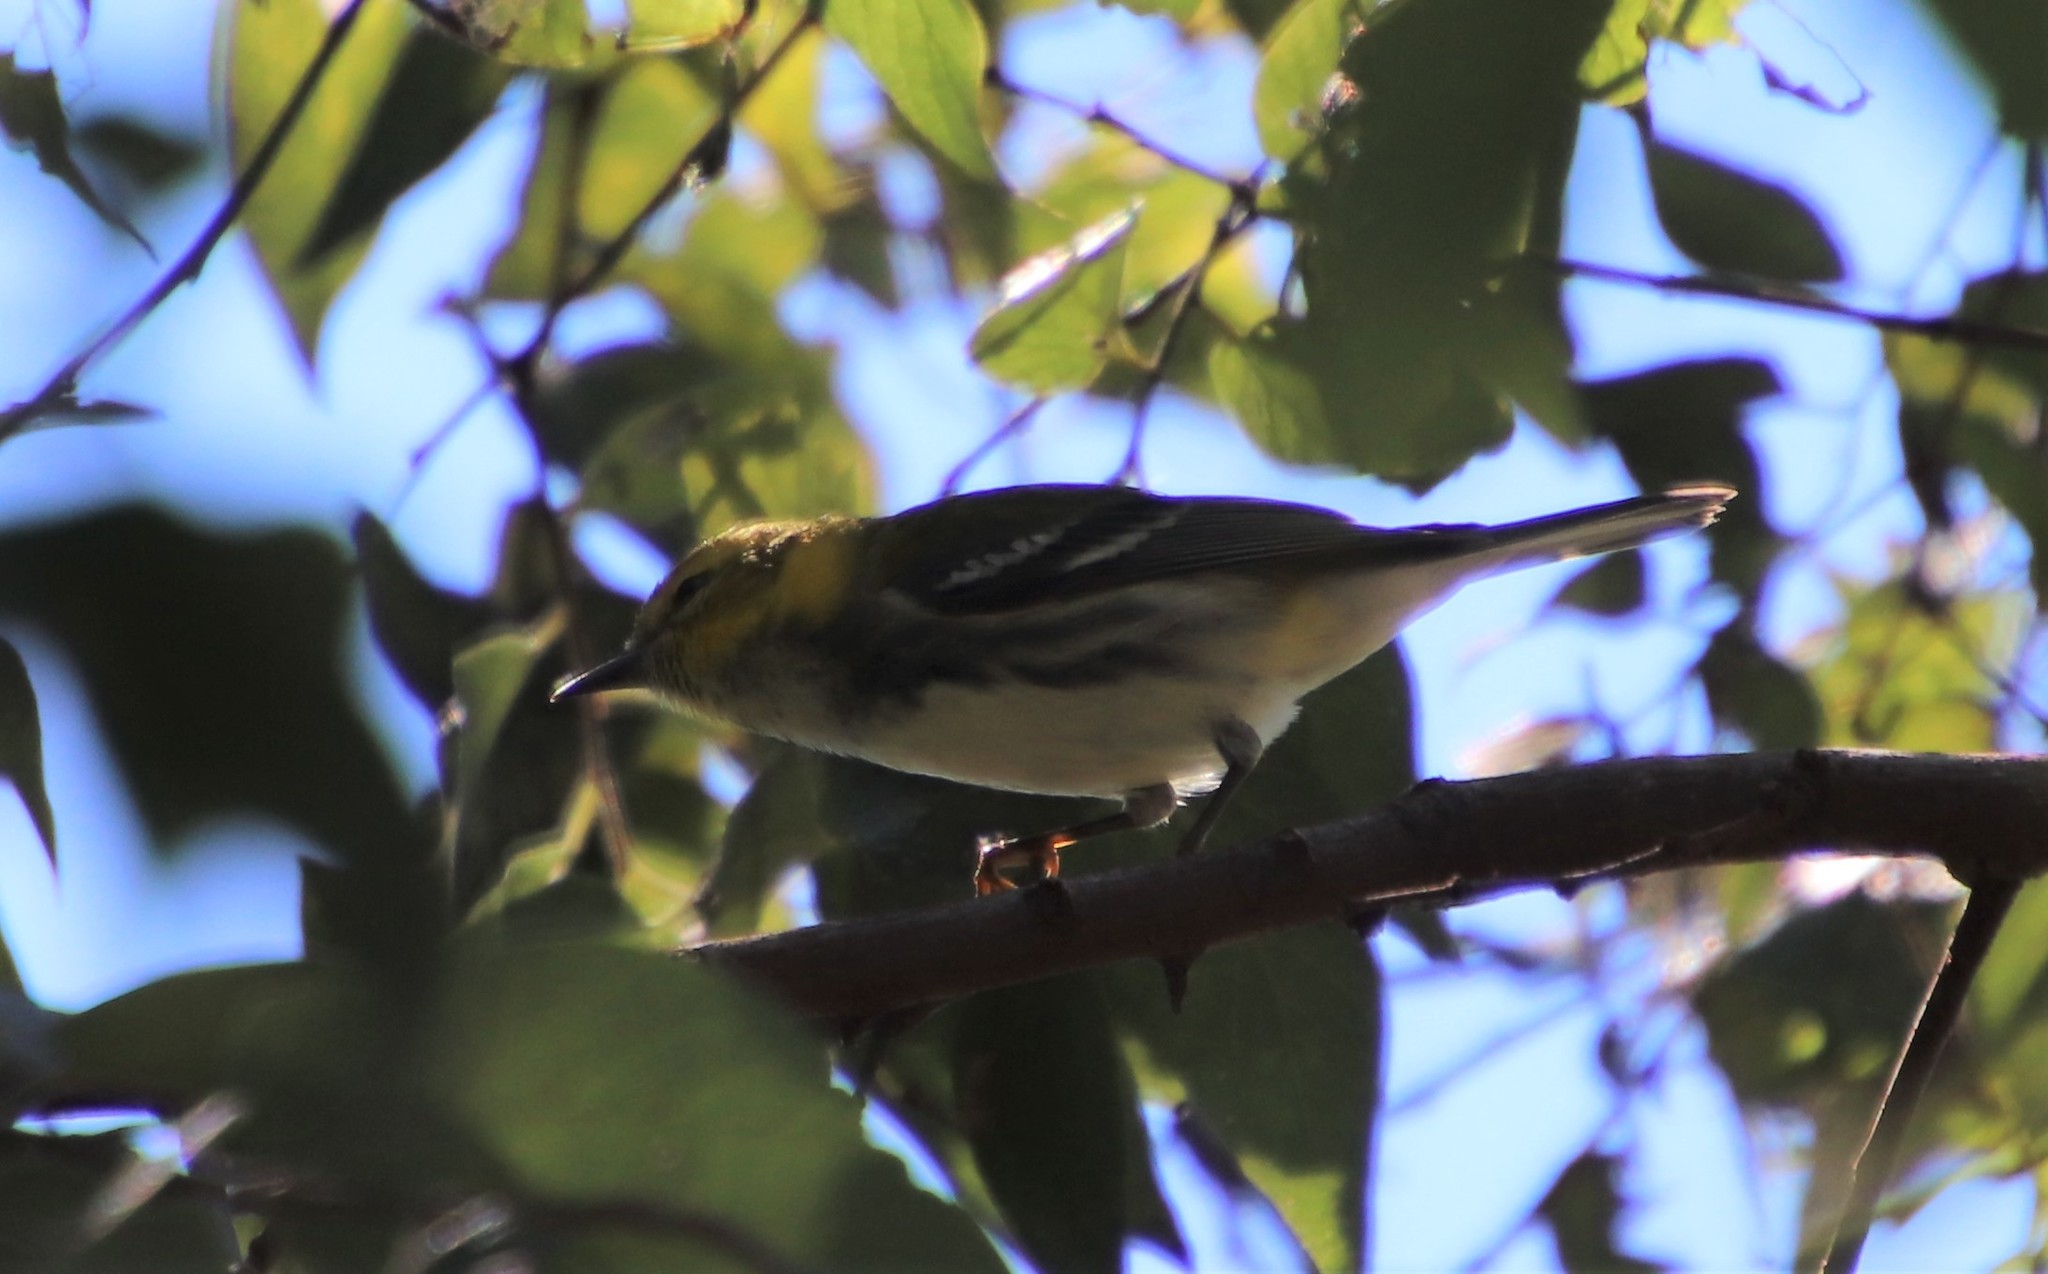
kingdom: Animalia
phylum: Chordata
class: Aves
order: Passeriformes
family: Parulidae
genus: Setophaga
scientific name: Setophaga virens
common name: Black-throated green warbler
